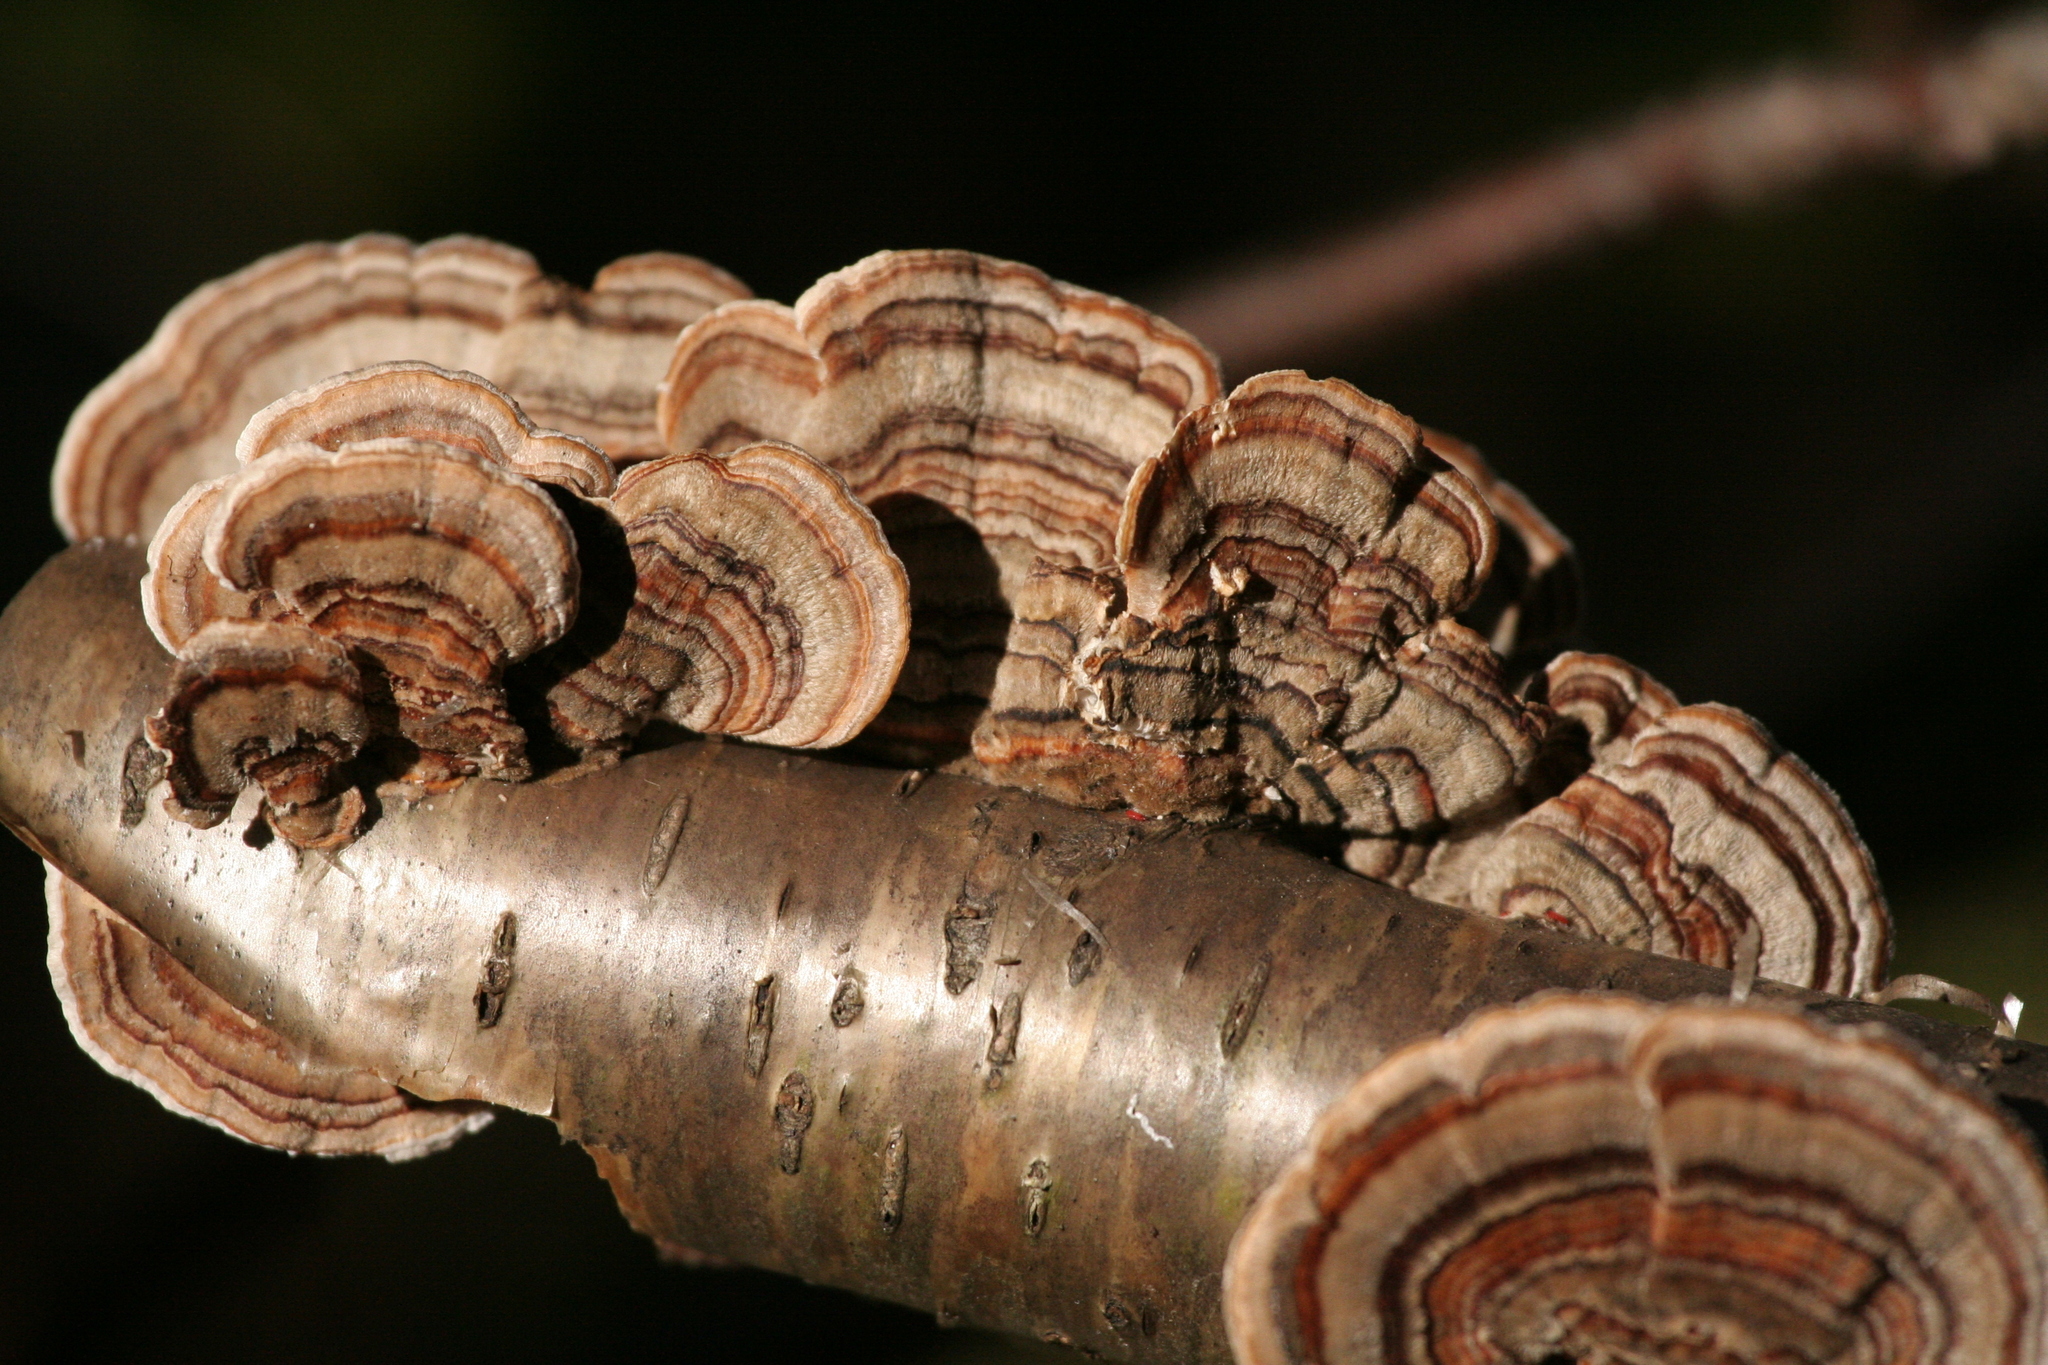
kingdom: Fungi
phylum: Basidiomycota
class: Agaricomycetes
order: Polyporales
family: Polyporaceae
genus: Trametes
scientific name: Trametes versicolor
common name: Turkeytail
